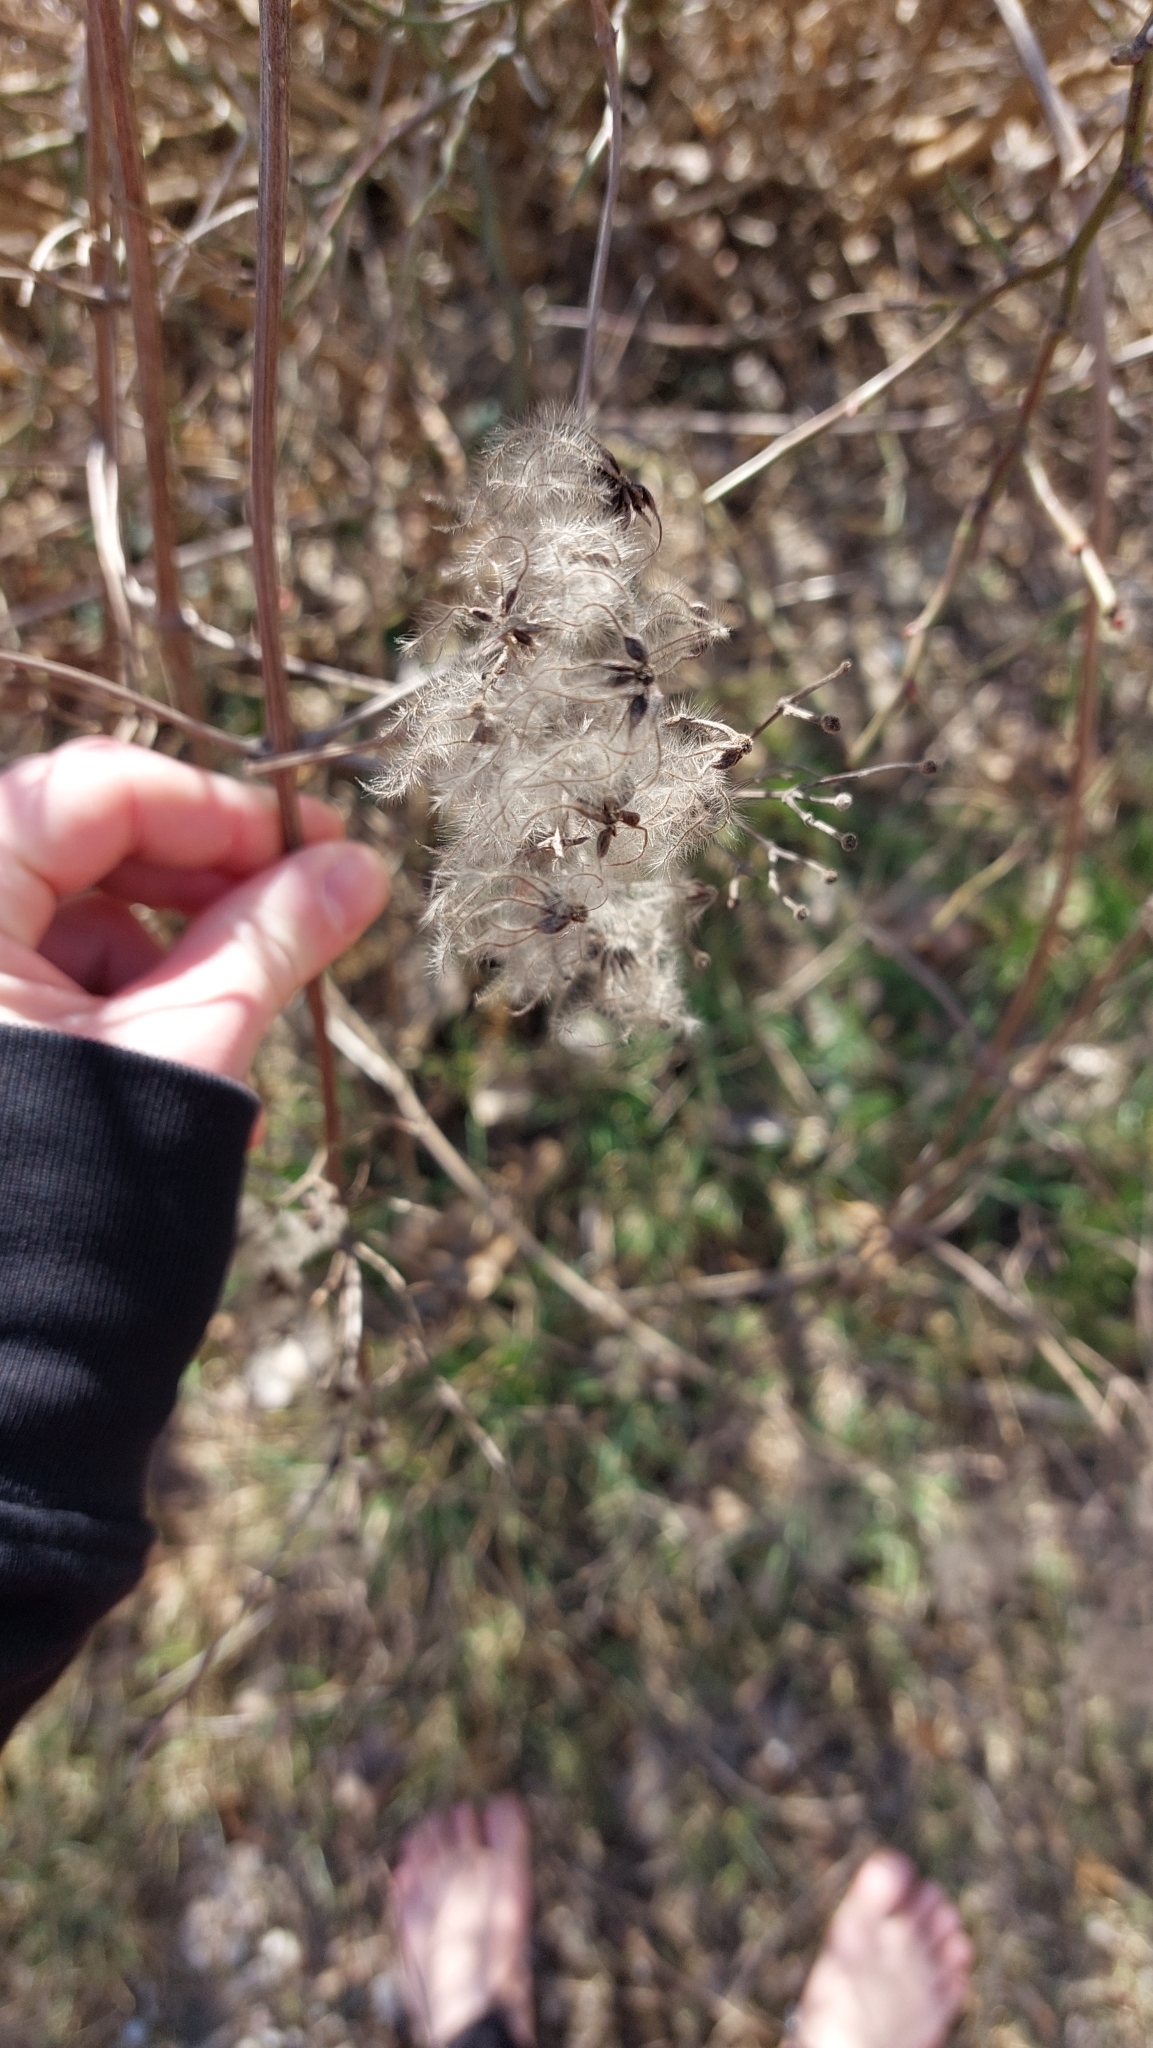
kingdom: Plantae
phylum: Tracheophyta
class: Magnoliopsida
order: Ranunculales
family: Ranunculaceae
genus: Clematis
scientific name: Clematis vitalba
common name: Evergreen clematis
